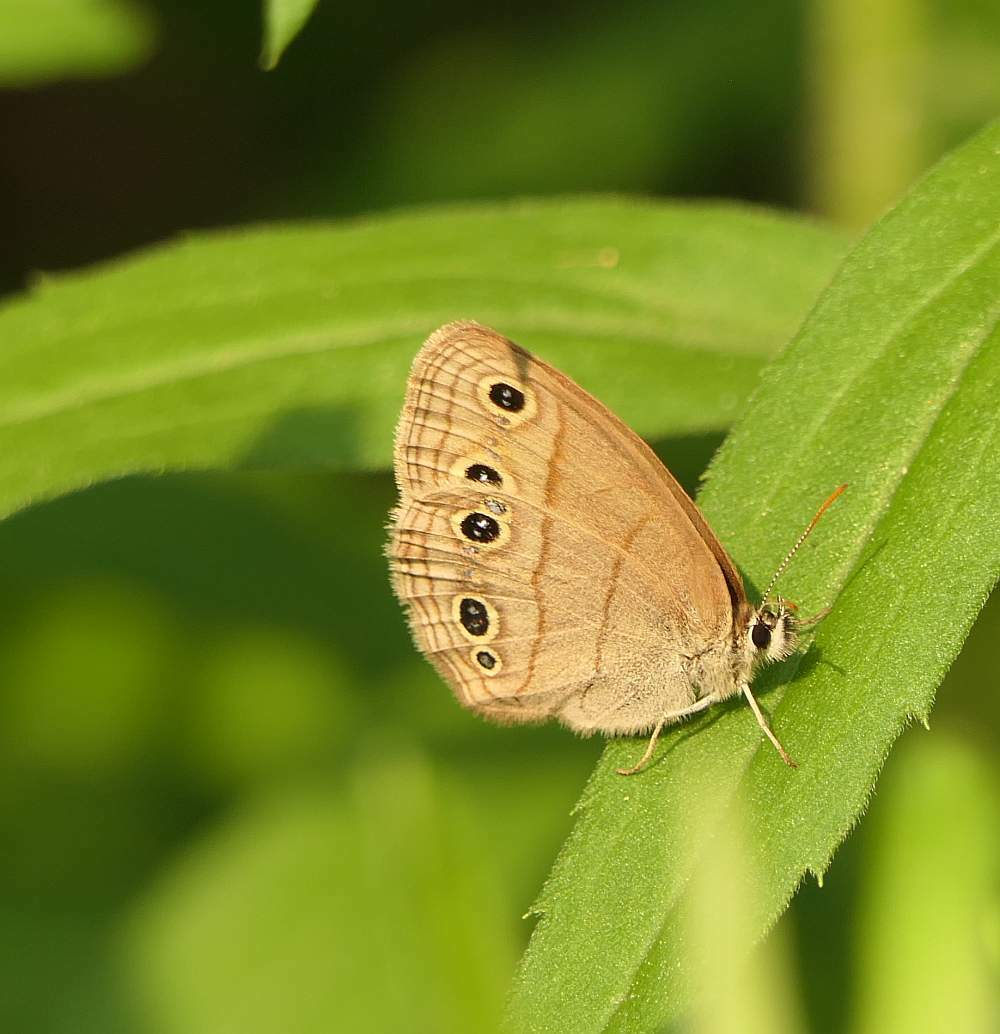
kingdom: Animalia
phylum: Arthropoda
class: Insecta
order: Lepidoptera
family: Nymphalidae
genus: Euptychia
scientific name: Euptychia cymela
